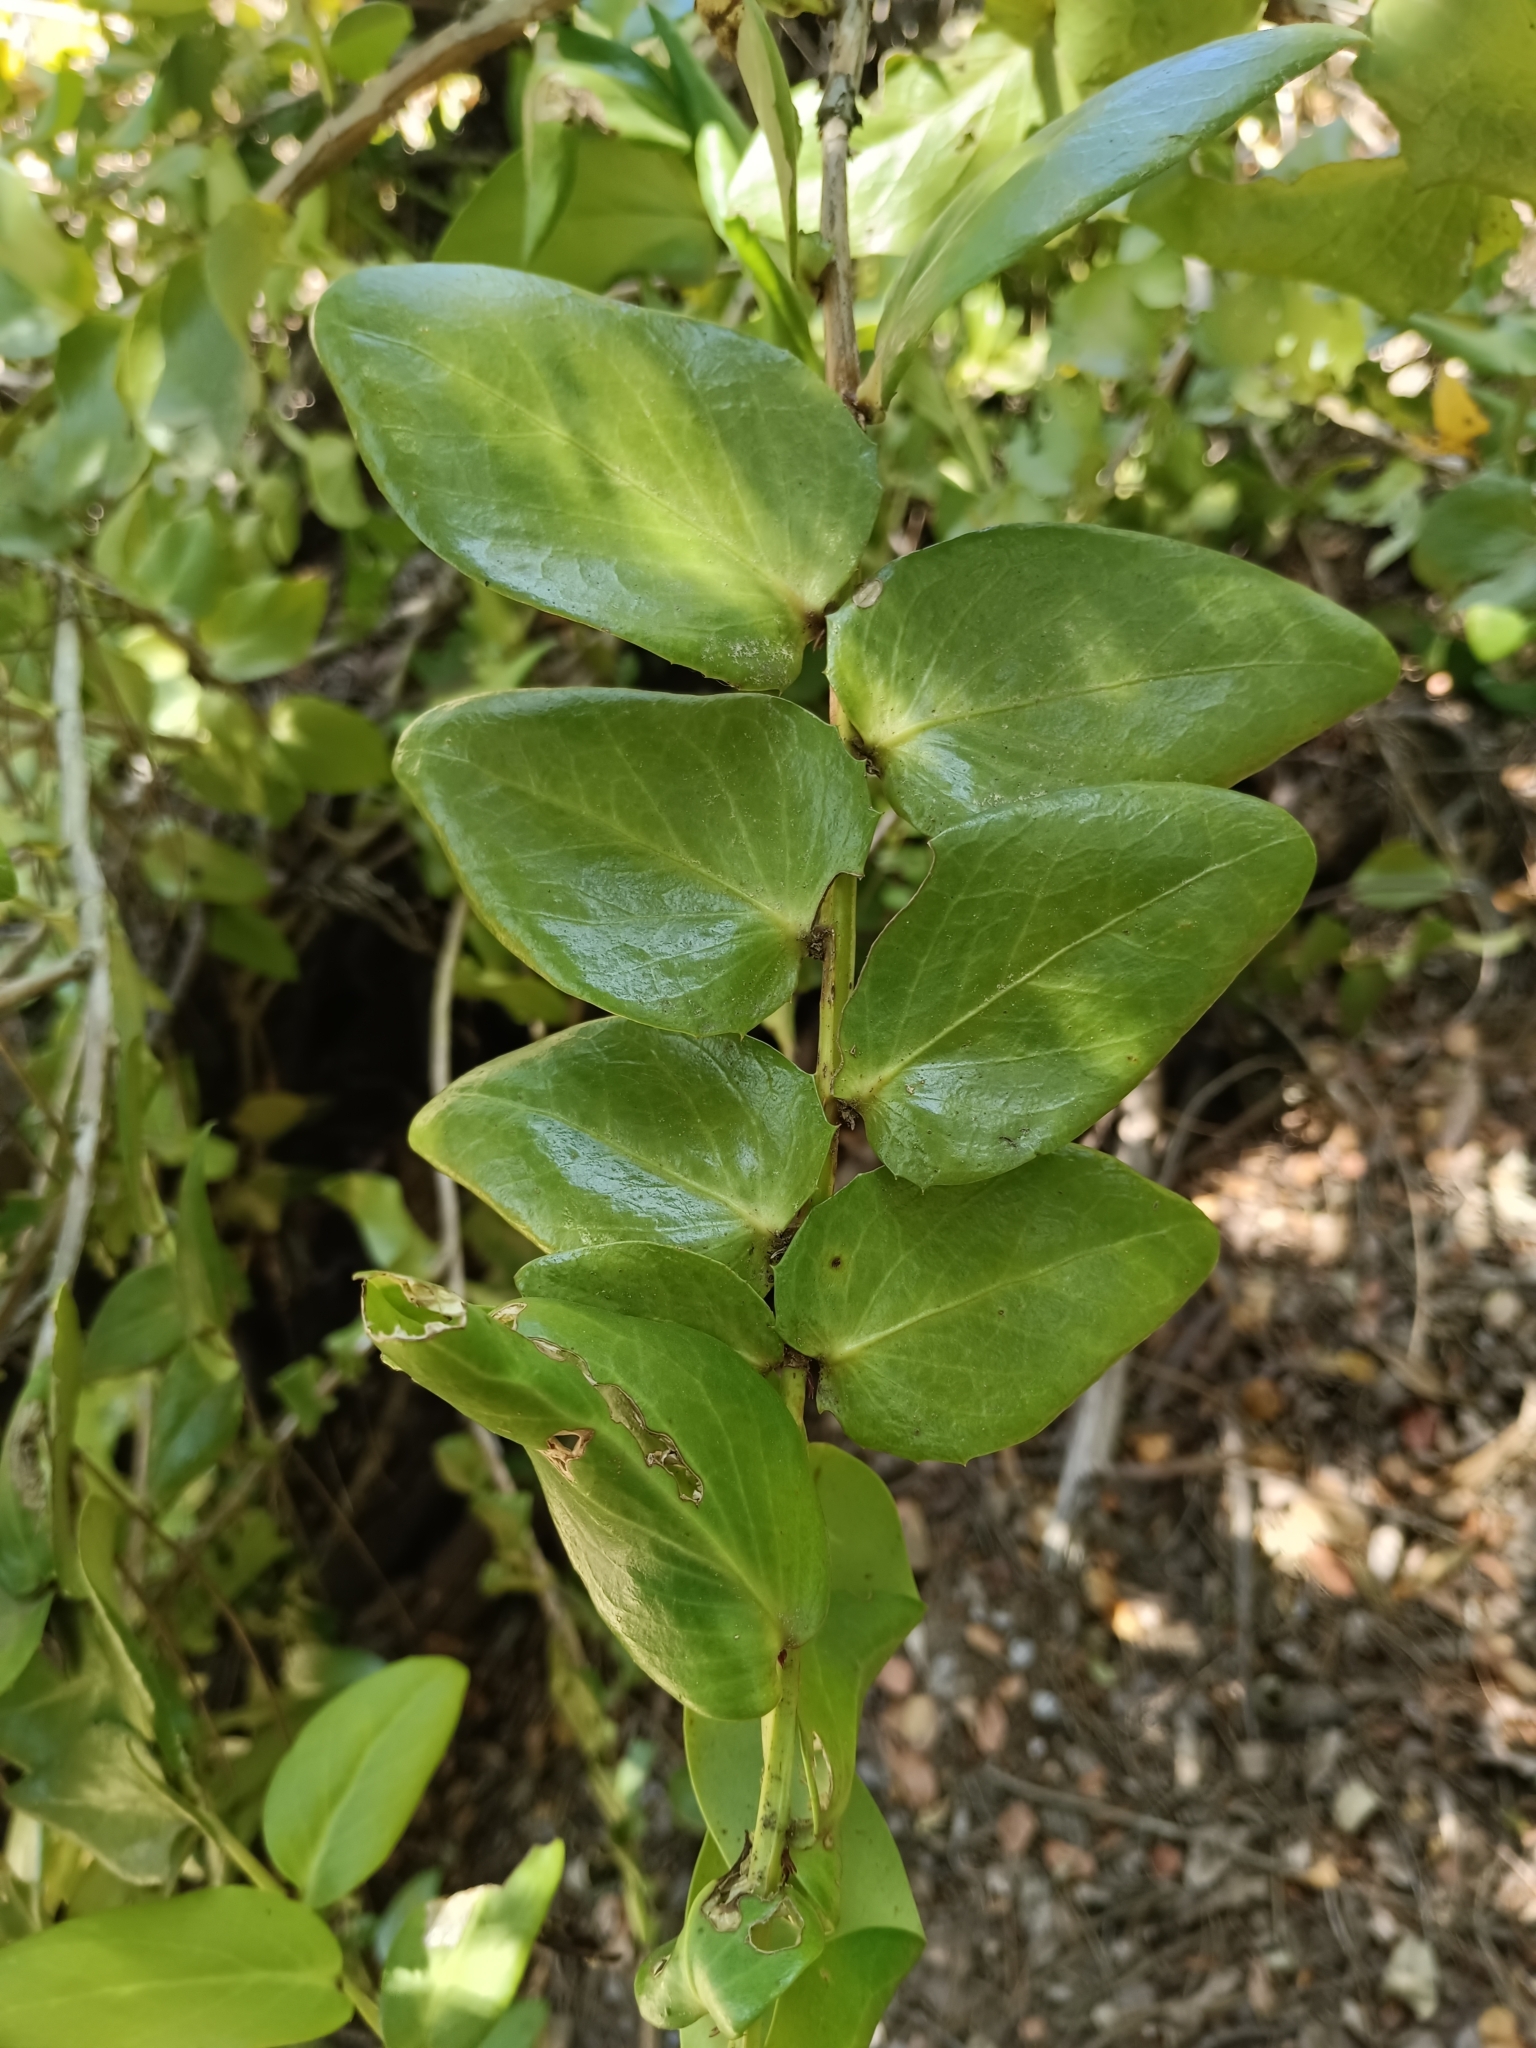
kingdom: Plantae
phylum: Tracheophyta
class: Magnoliopsida
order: Apiales
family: Griseliniaceae
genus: Griselinia
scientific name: Griselinia scandens
